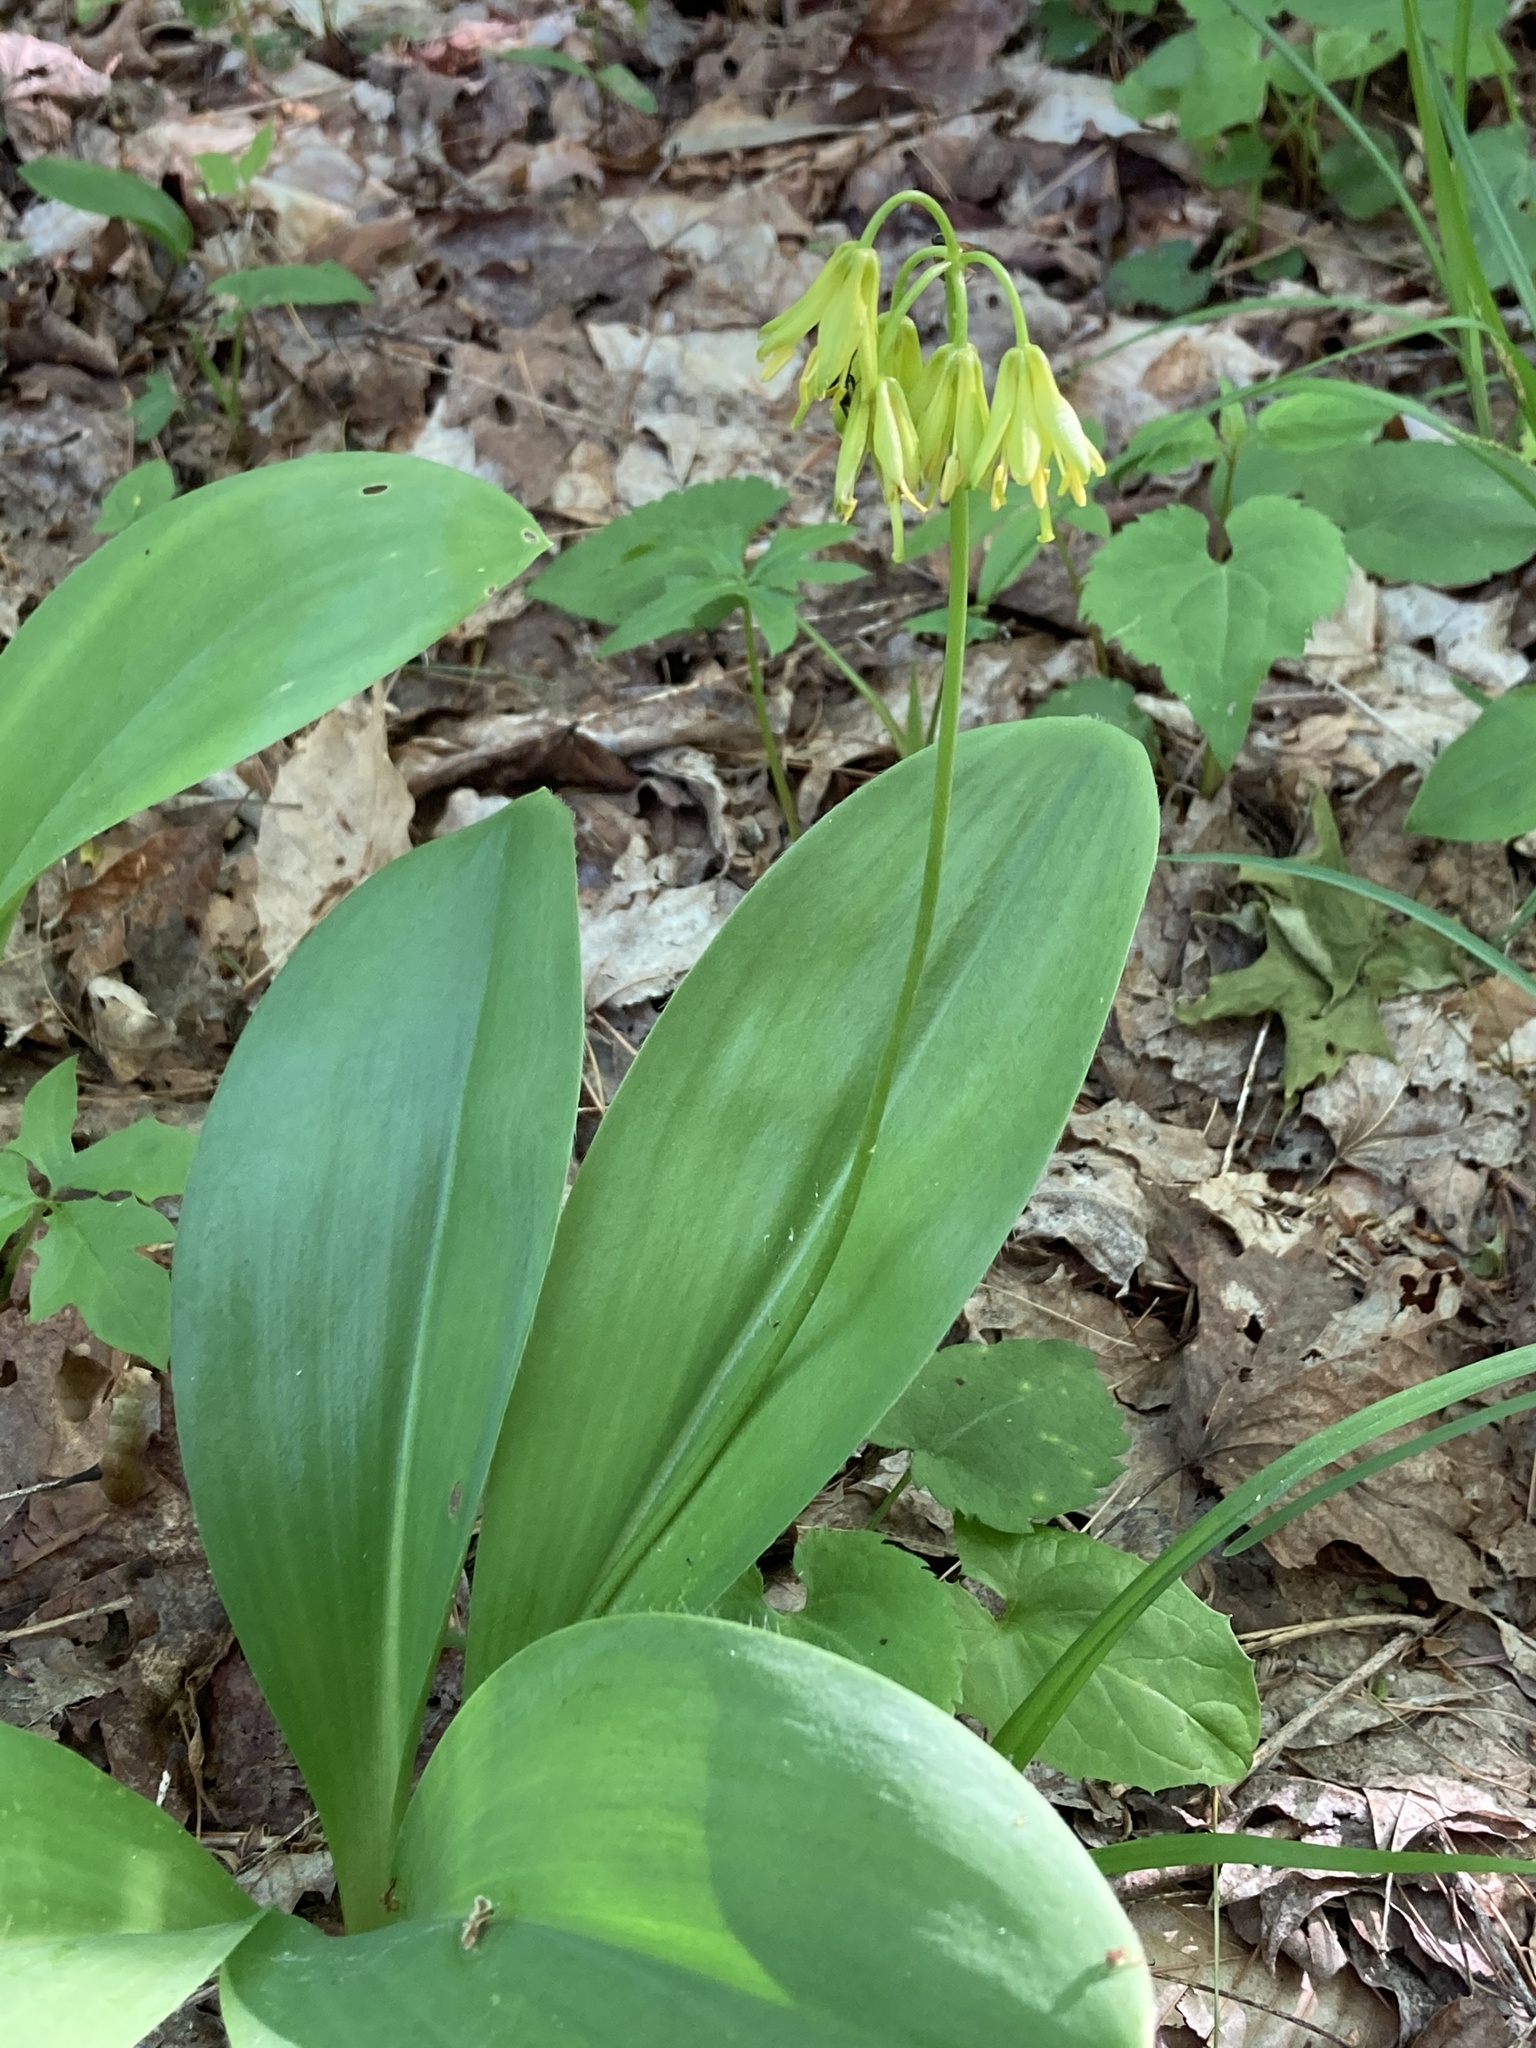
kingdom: Plantae
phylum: Tracheophyta
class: Liliopsida
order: Liliales
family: Liliaceae
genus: Clintonia
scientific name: Clintonia borealis
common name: Yellow clintonia
